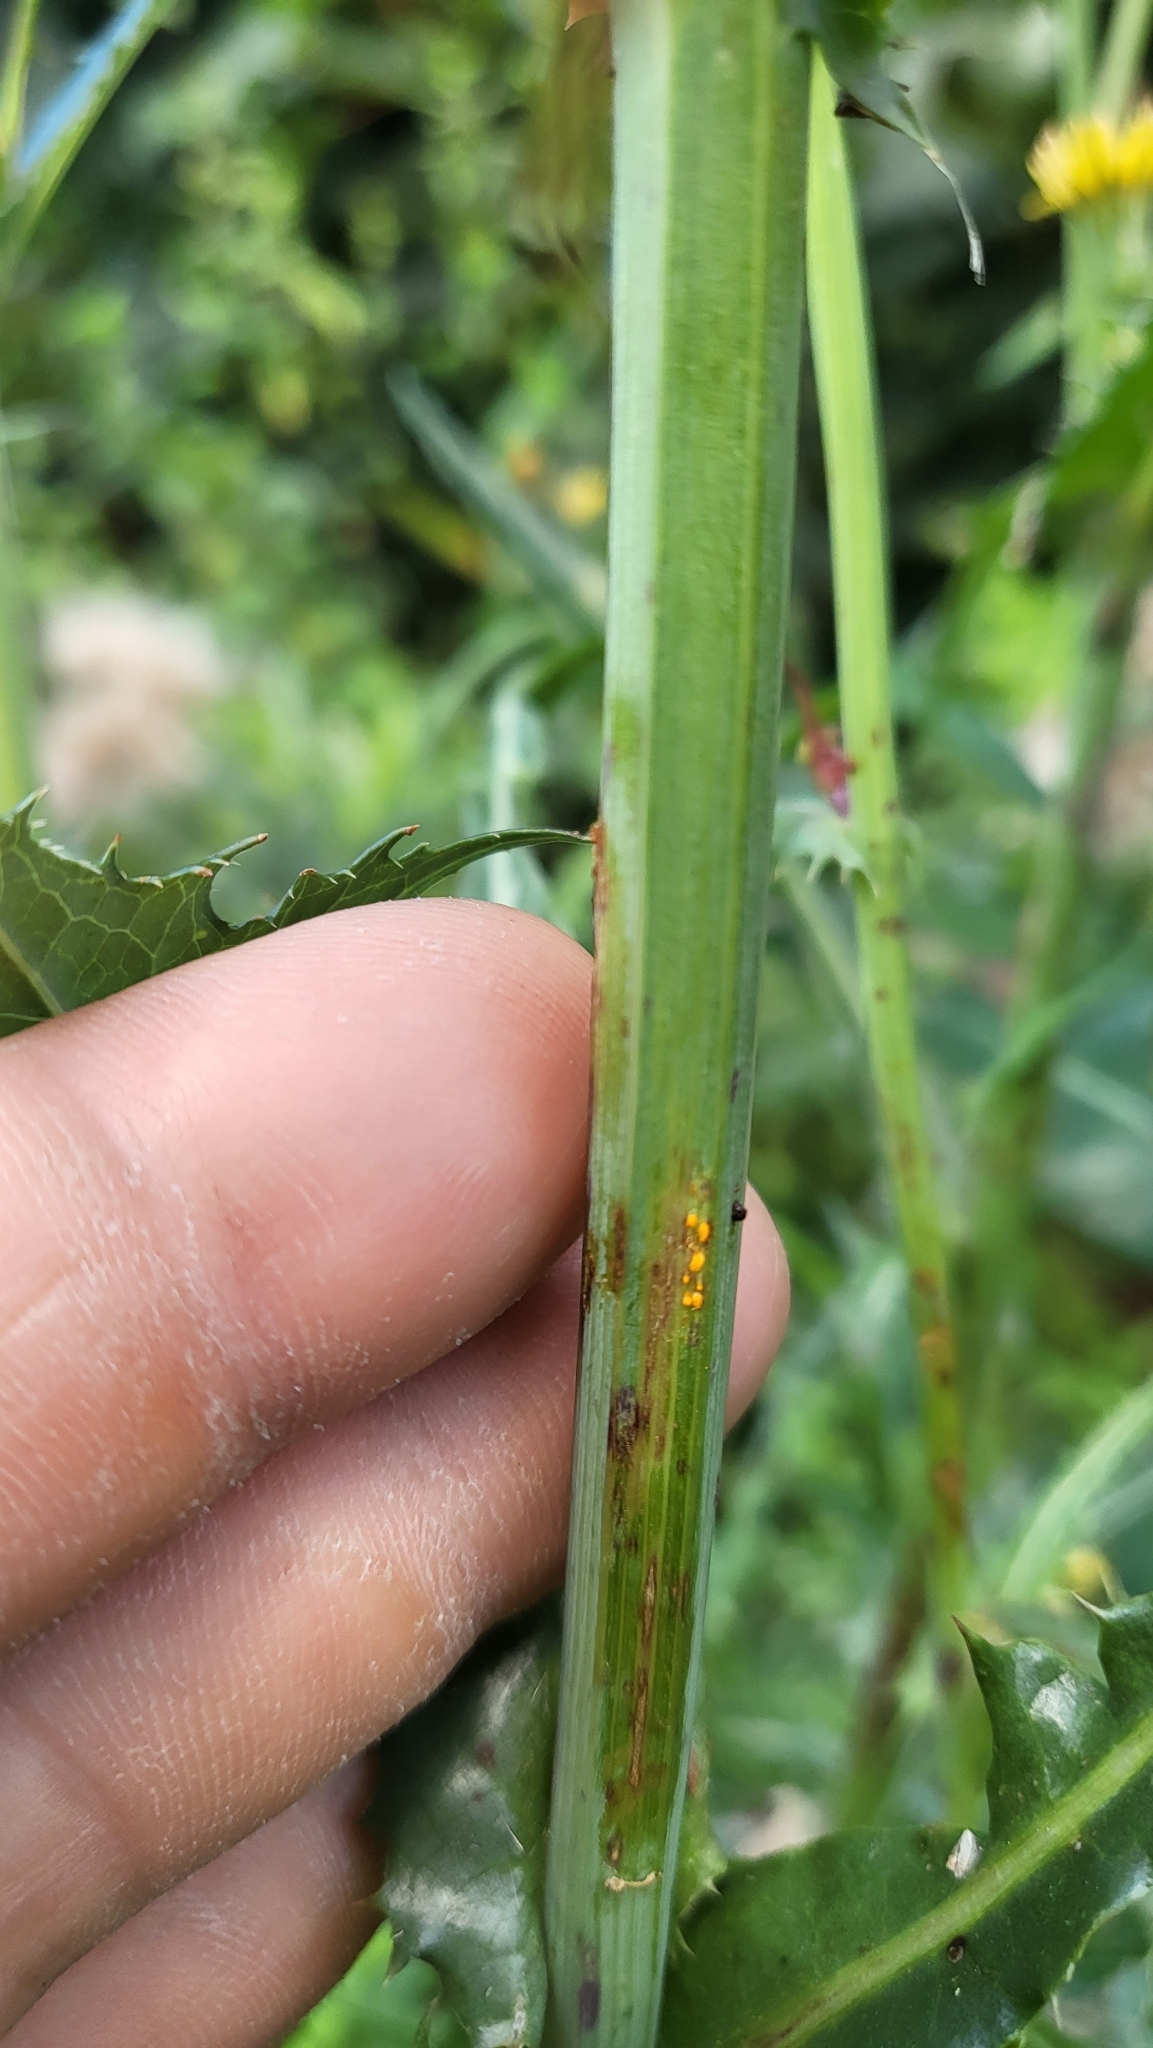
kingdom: Fungi
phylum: Basidiomycota
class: Pucciniomycetes
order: Pucciniales
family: Coleosporiaceae
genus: Coleosporium
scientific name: Coleosporium sonchi
